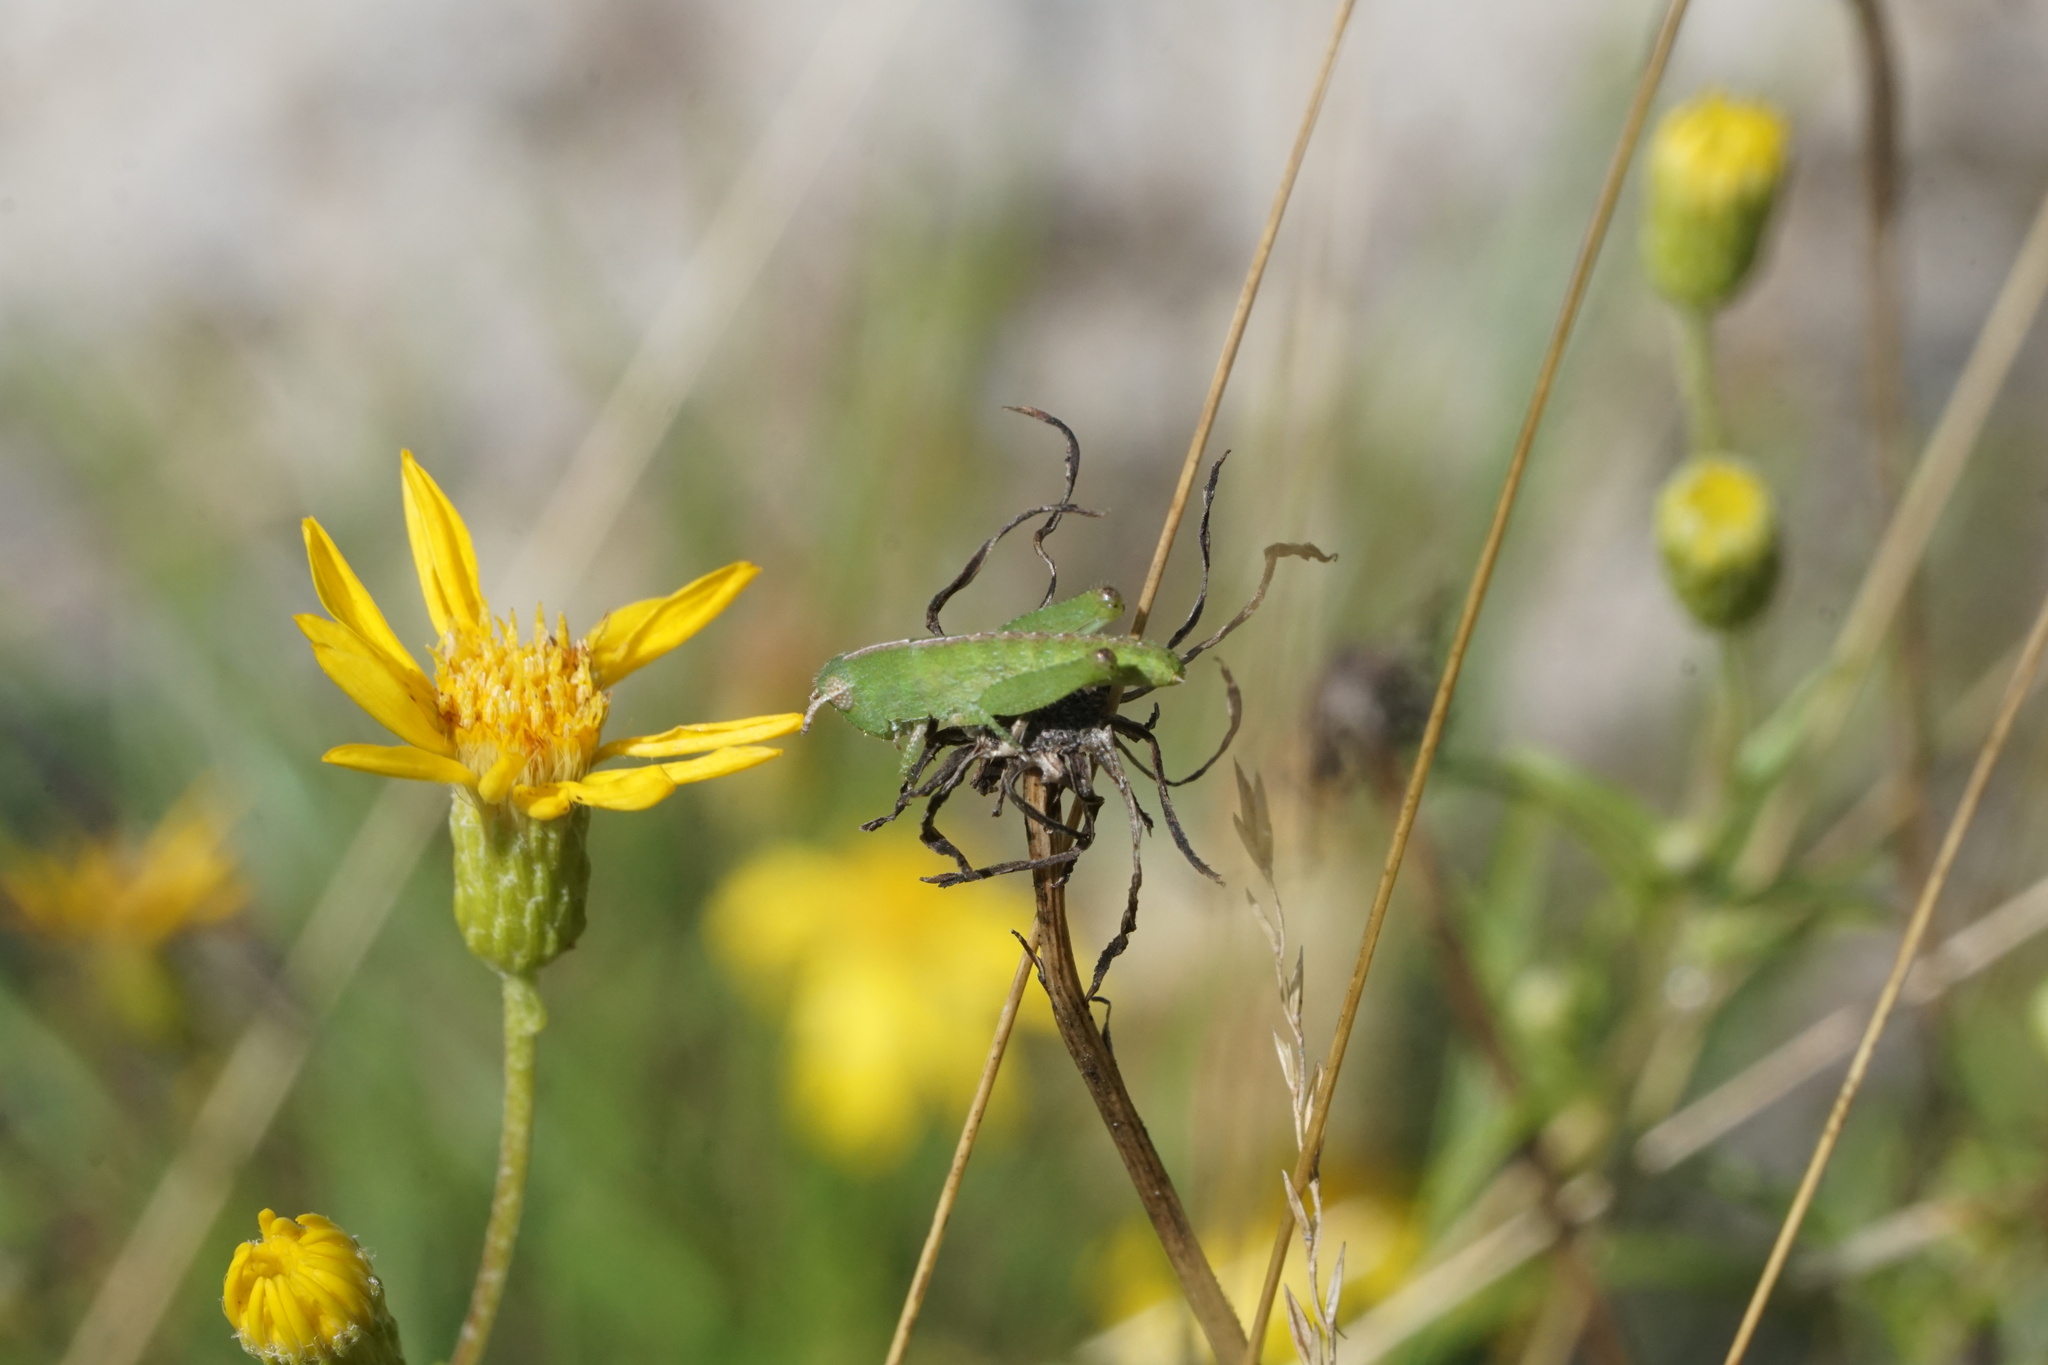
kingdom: Animalia
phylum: Arthropoda
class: Insecta
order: Orthoptera
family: Acrididae
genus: Chortophaga
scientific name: Chortophaga viridifasciata
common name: Green-striped grasshopper
